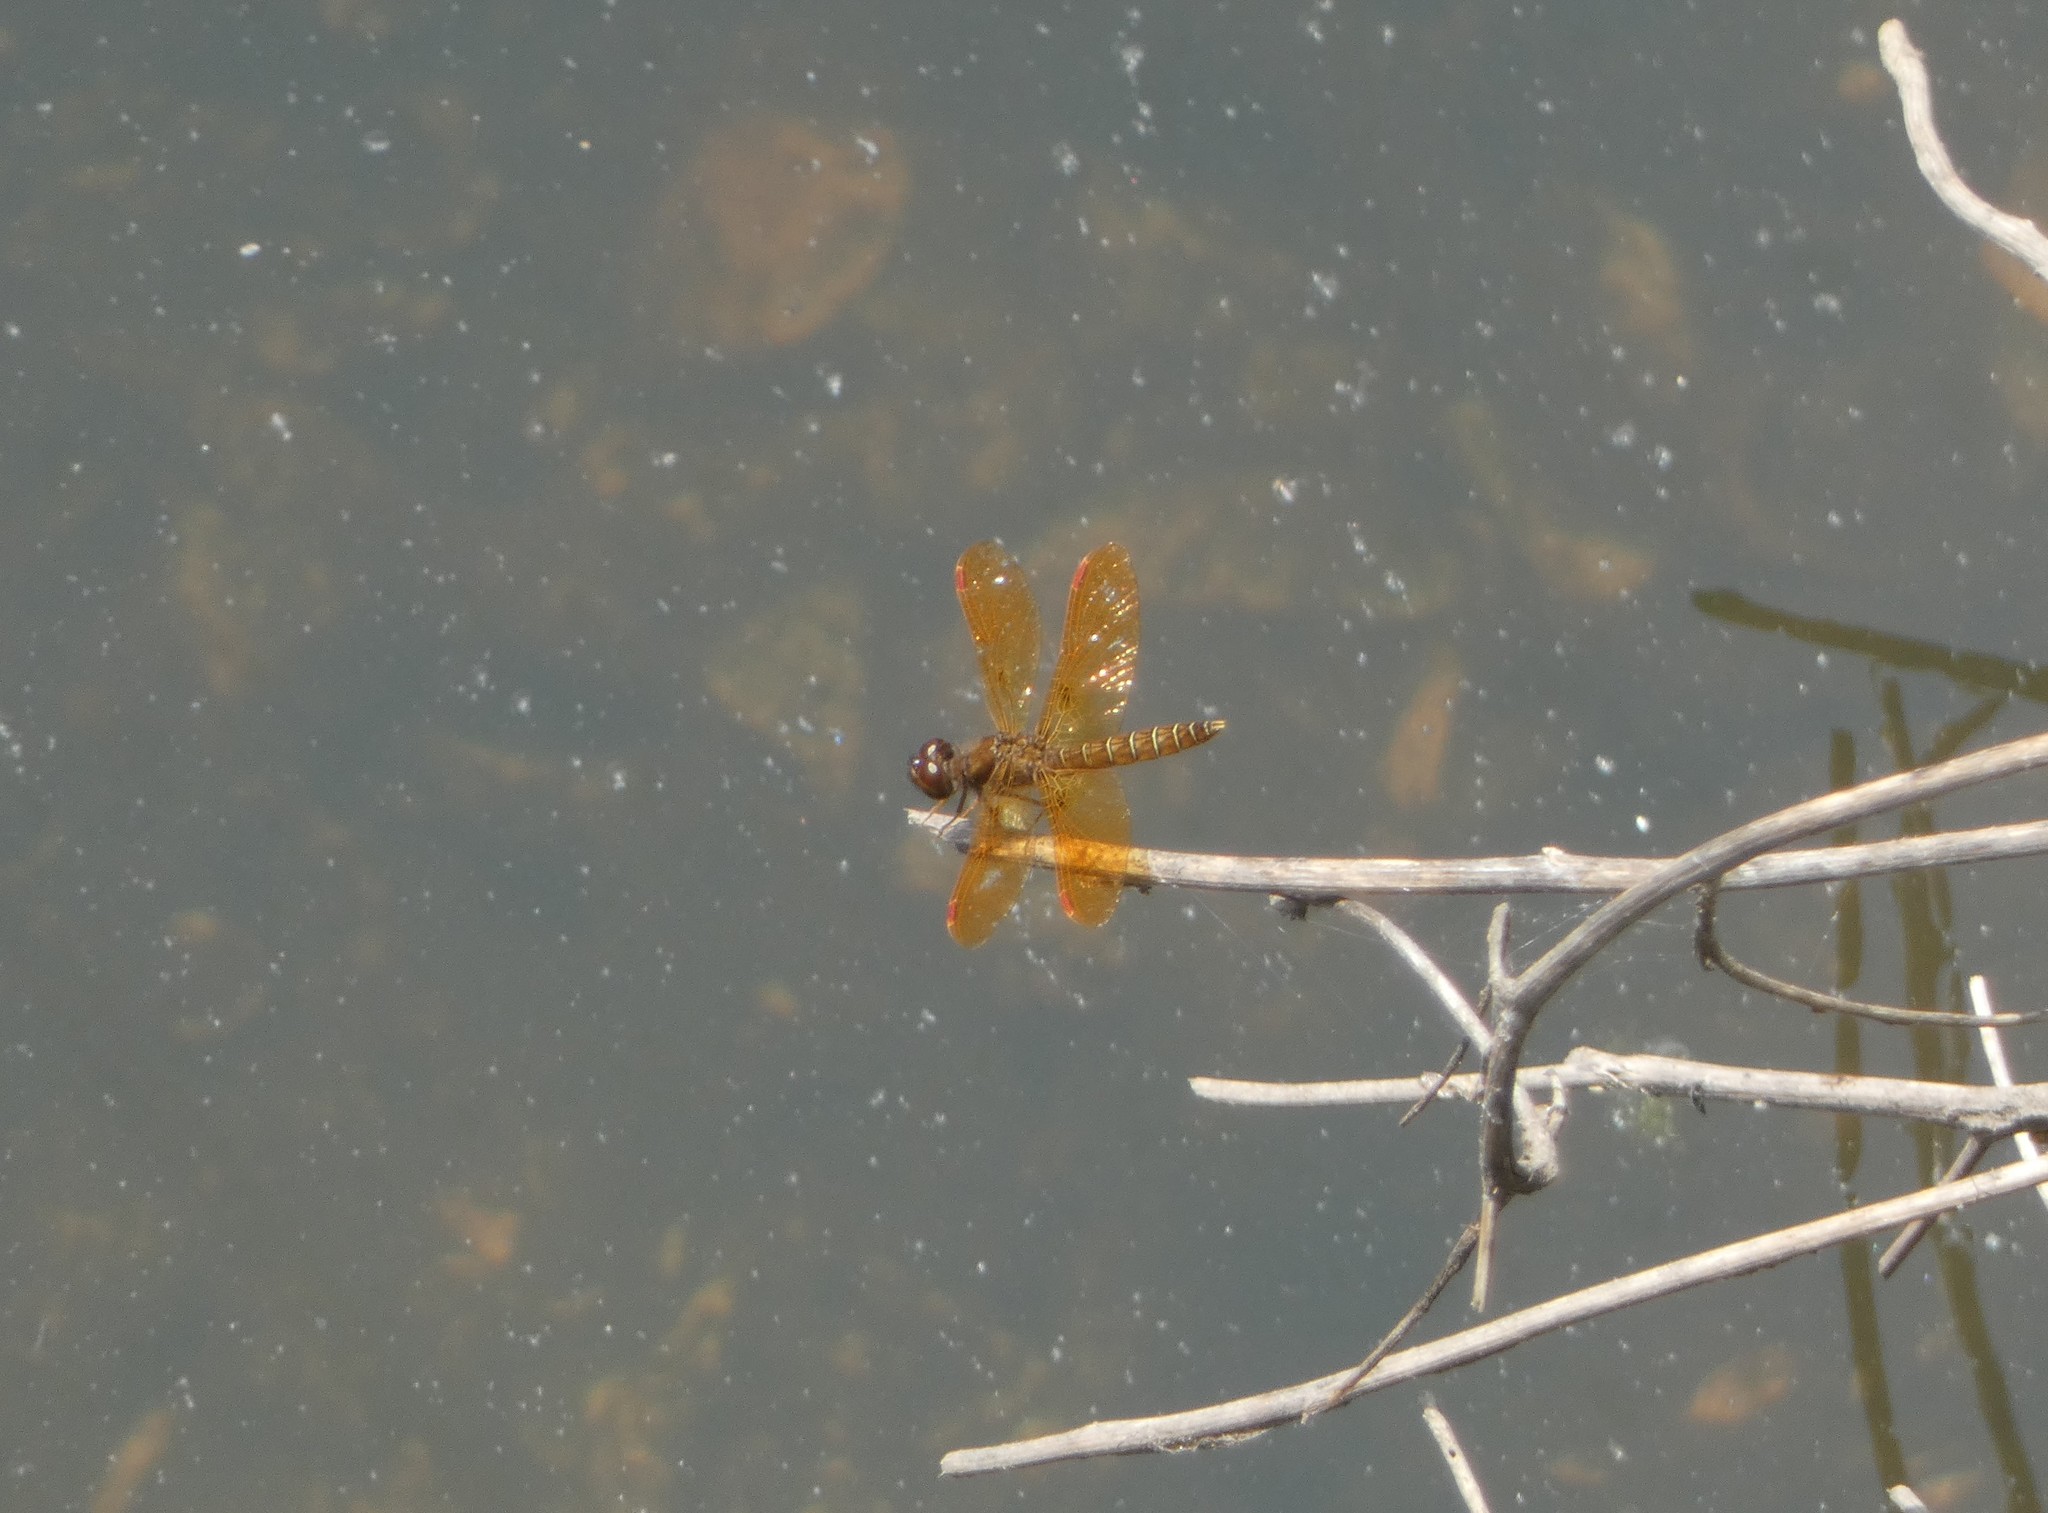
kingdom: Animalia
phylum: Arthropoda
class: Insecta
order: Odonata
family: Libellulidae
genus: Perithemis
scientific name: Perithemis tenera
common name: Eastern amberwing
